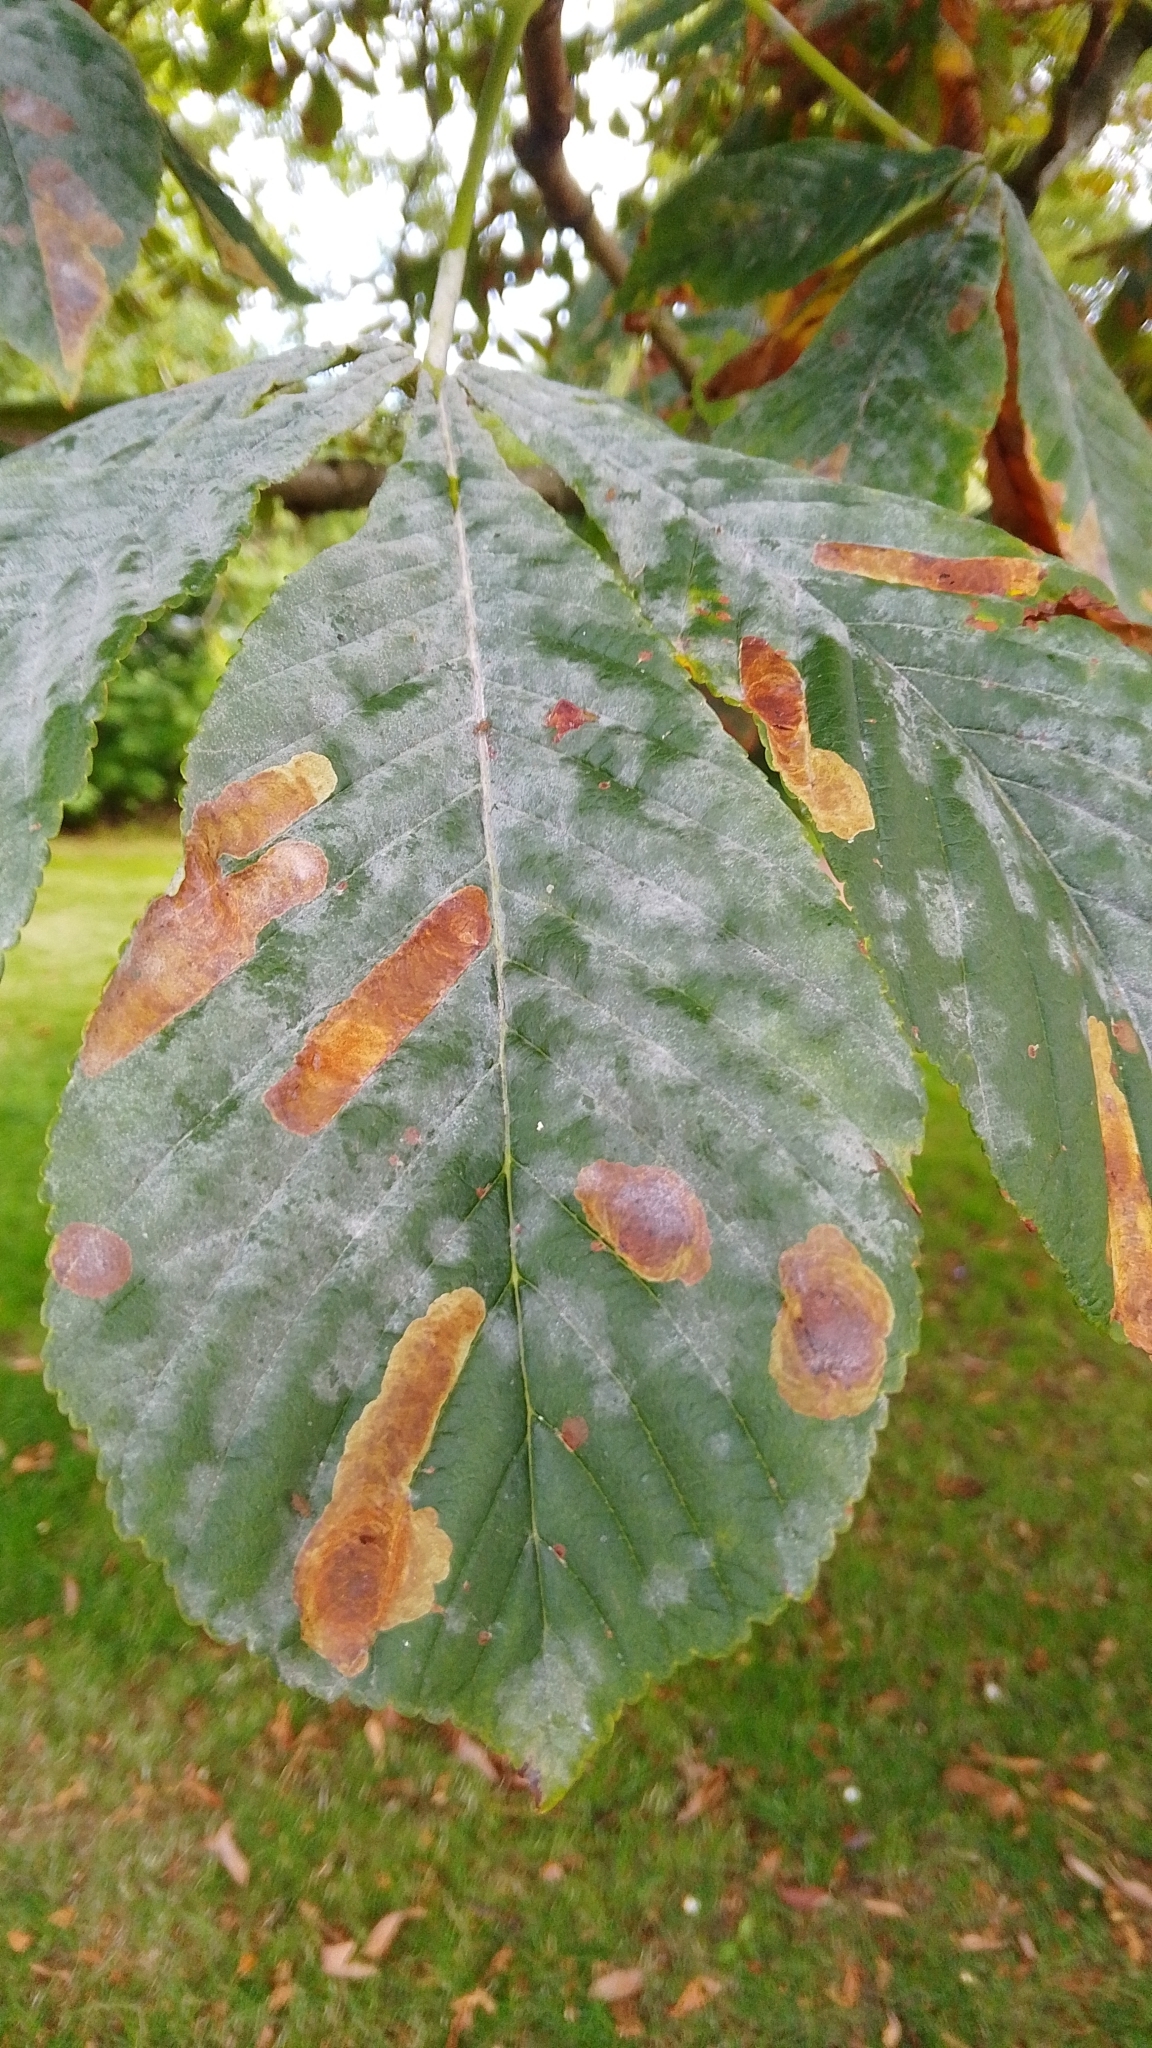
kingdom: Animalia
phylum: Arthropoda
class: Insecta
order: Lepidoptera
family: Gracillariidae
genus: Cameraria
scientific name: Cameraria ohridella
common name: Horse-chestnut leaf-miner
